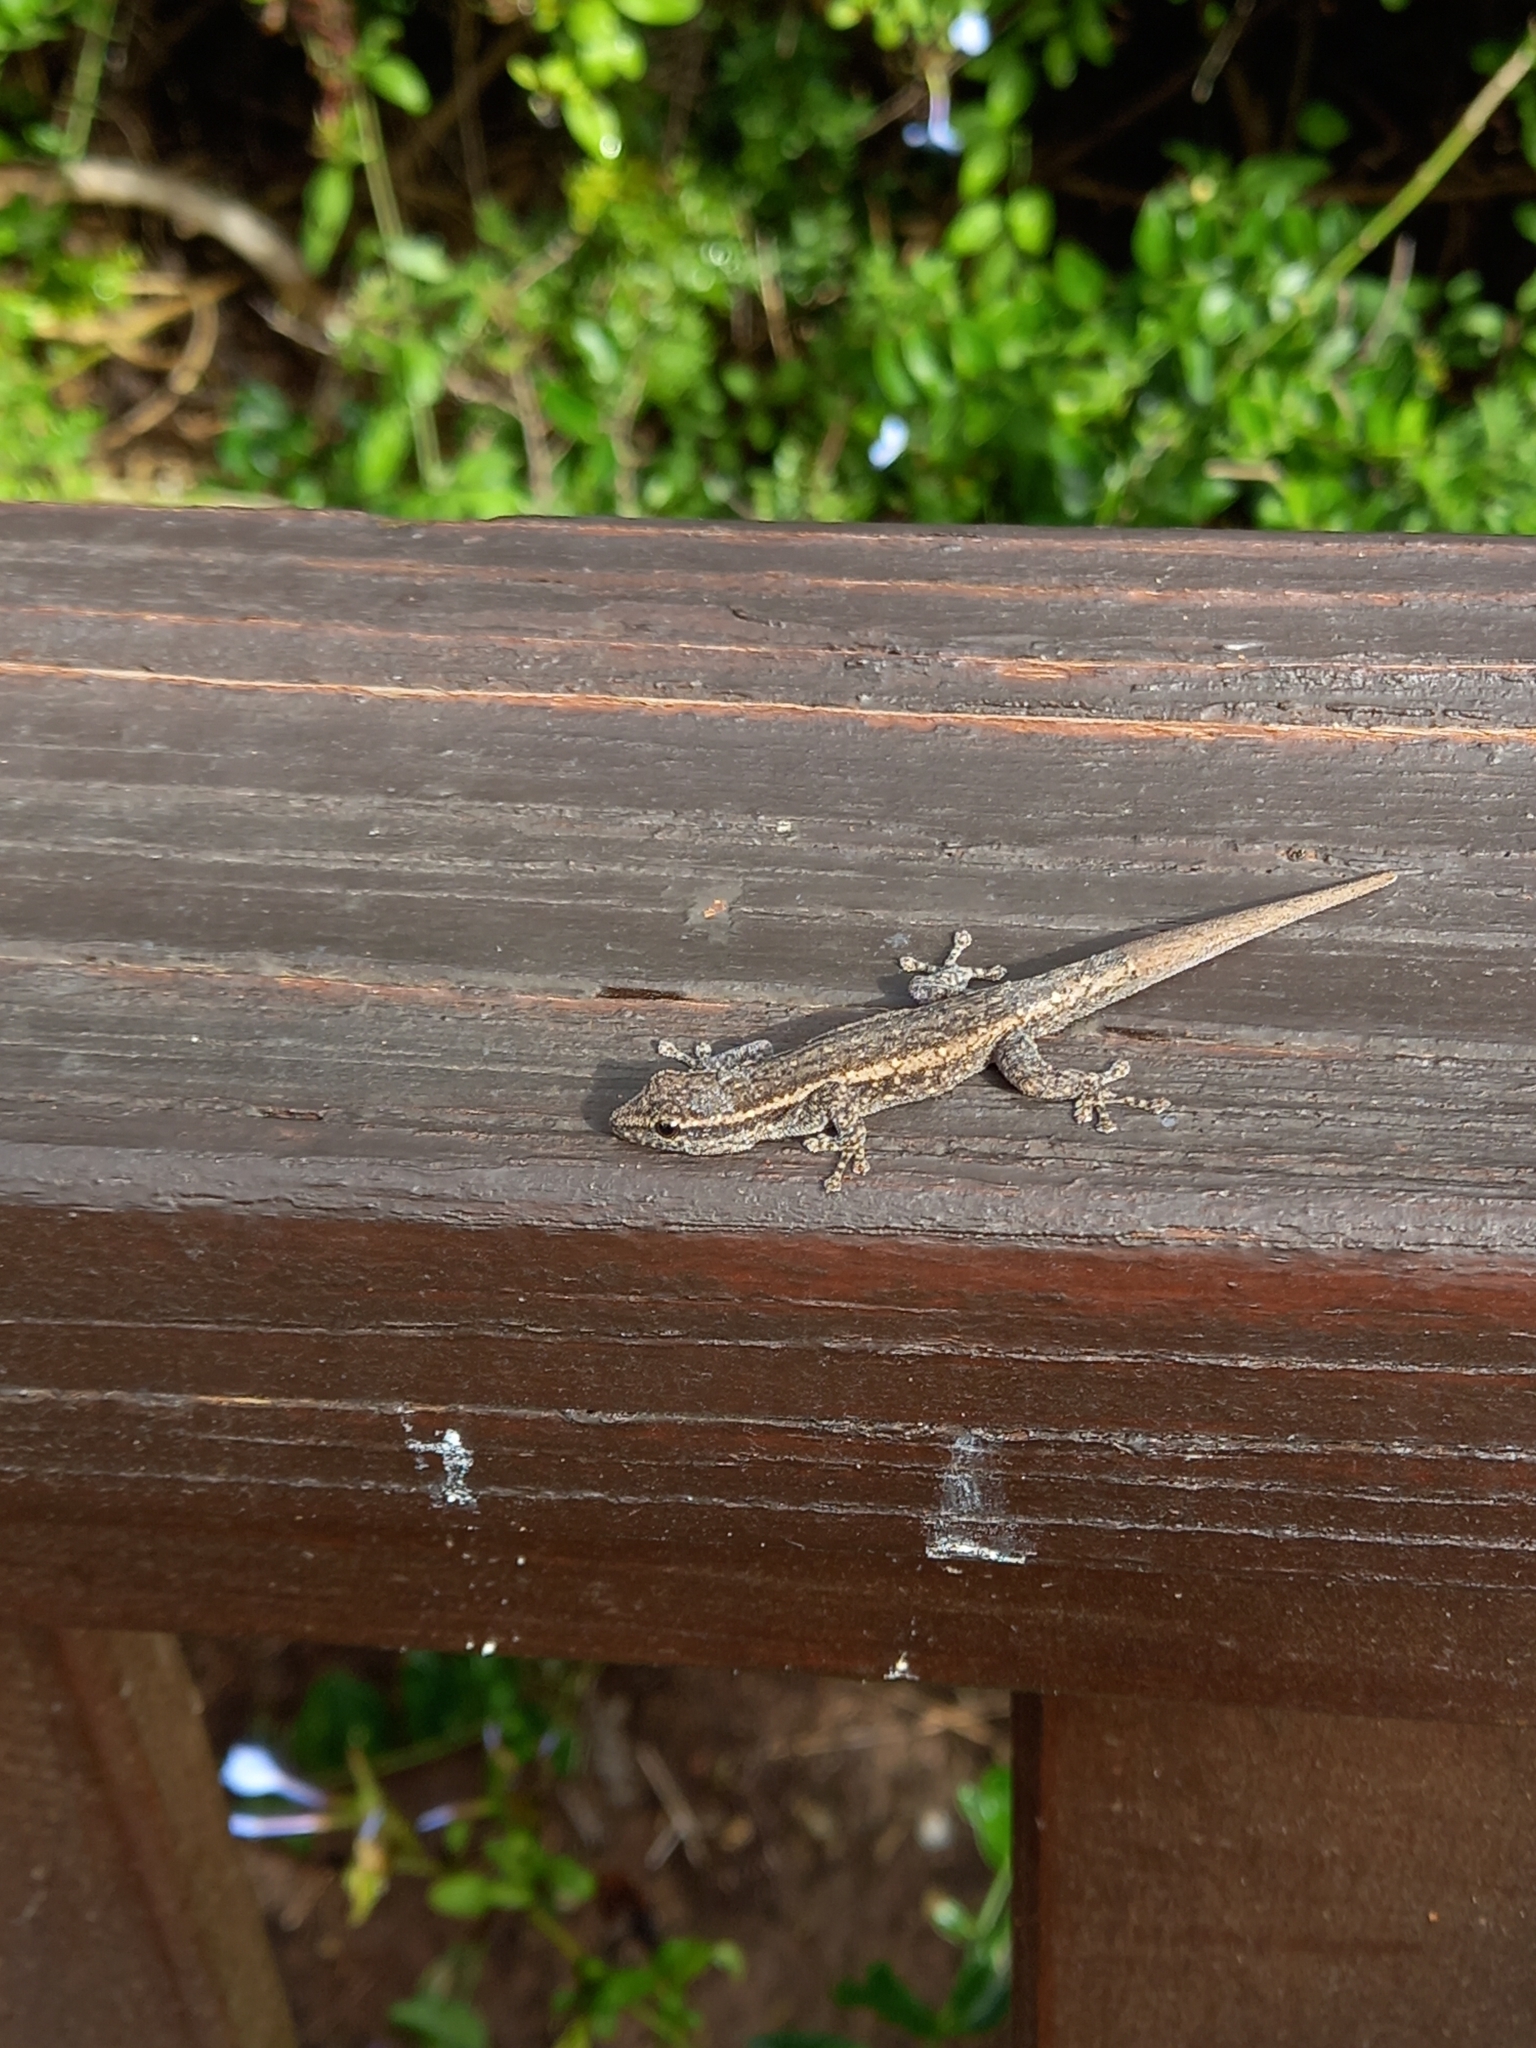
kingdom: Animalia
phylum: Chordata
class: Squamata
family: Gekkonidae
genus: Lygodactylus
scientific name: Lygodactylus capensis
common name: Cape dwarf gecko
